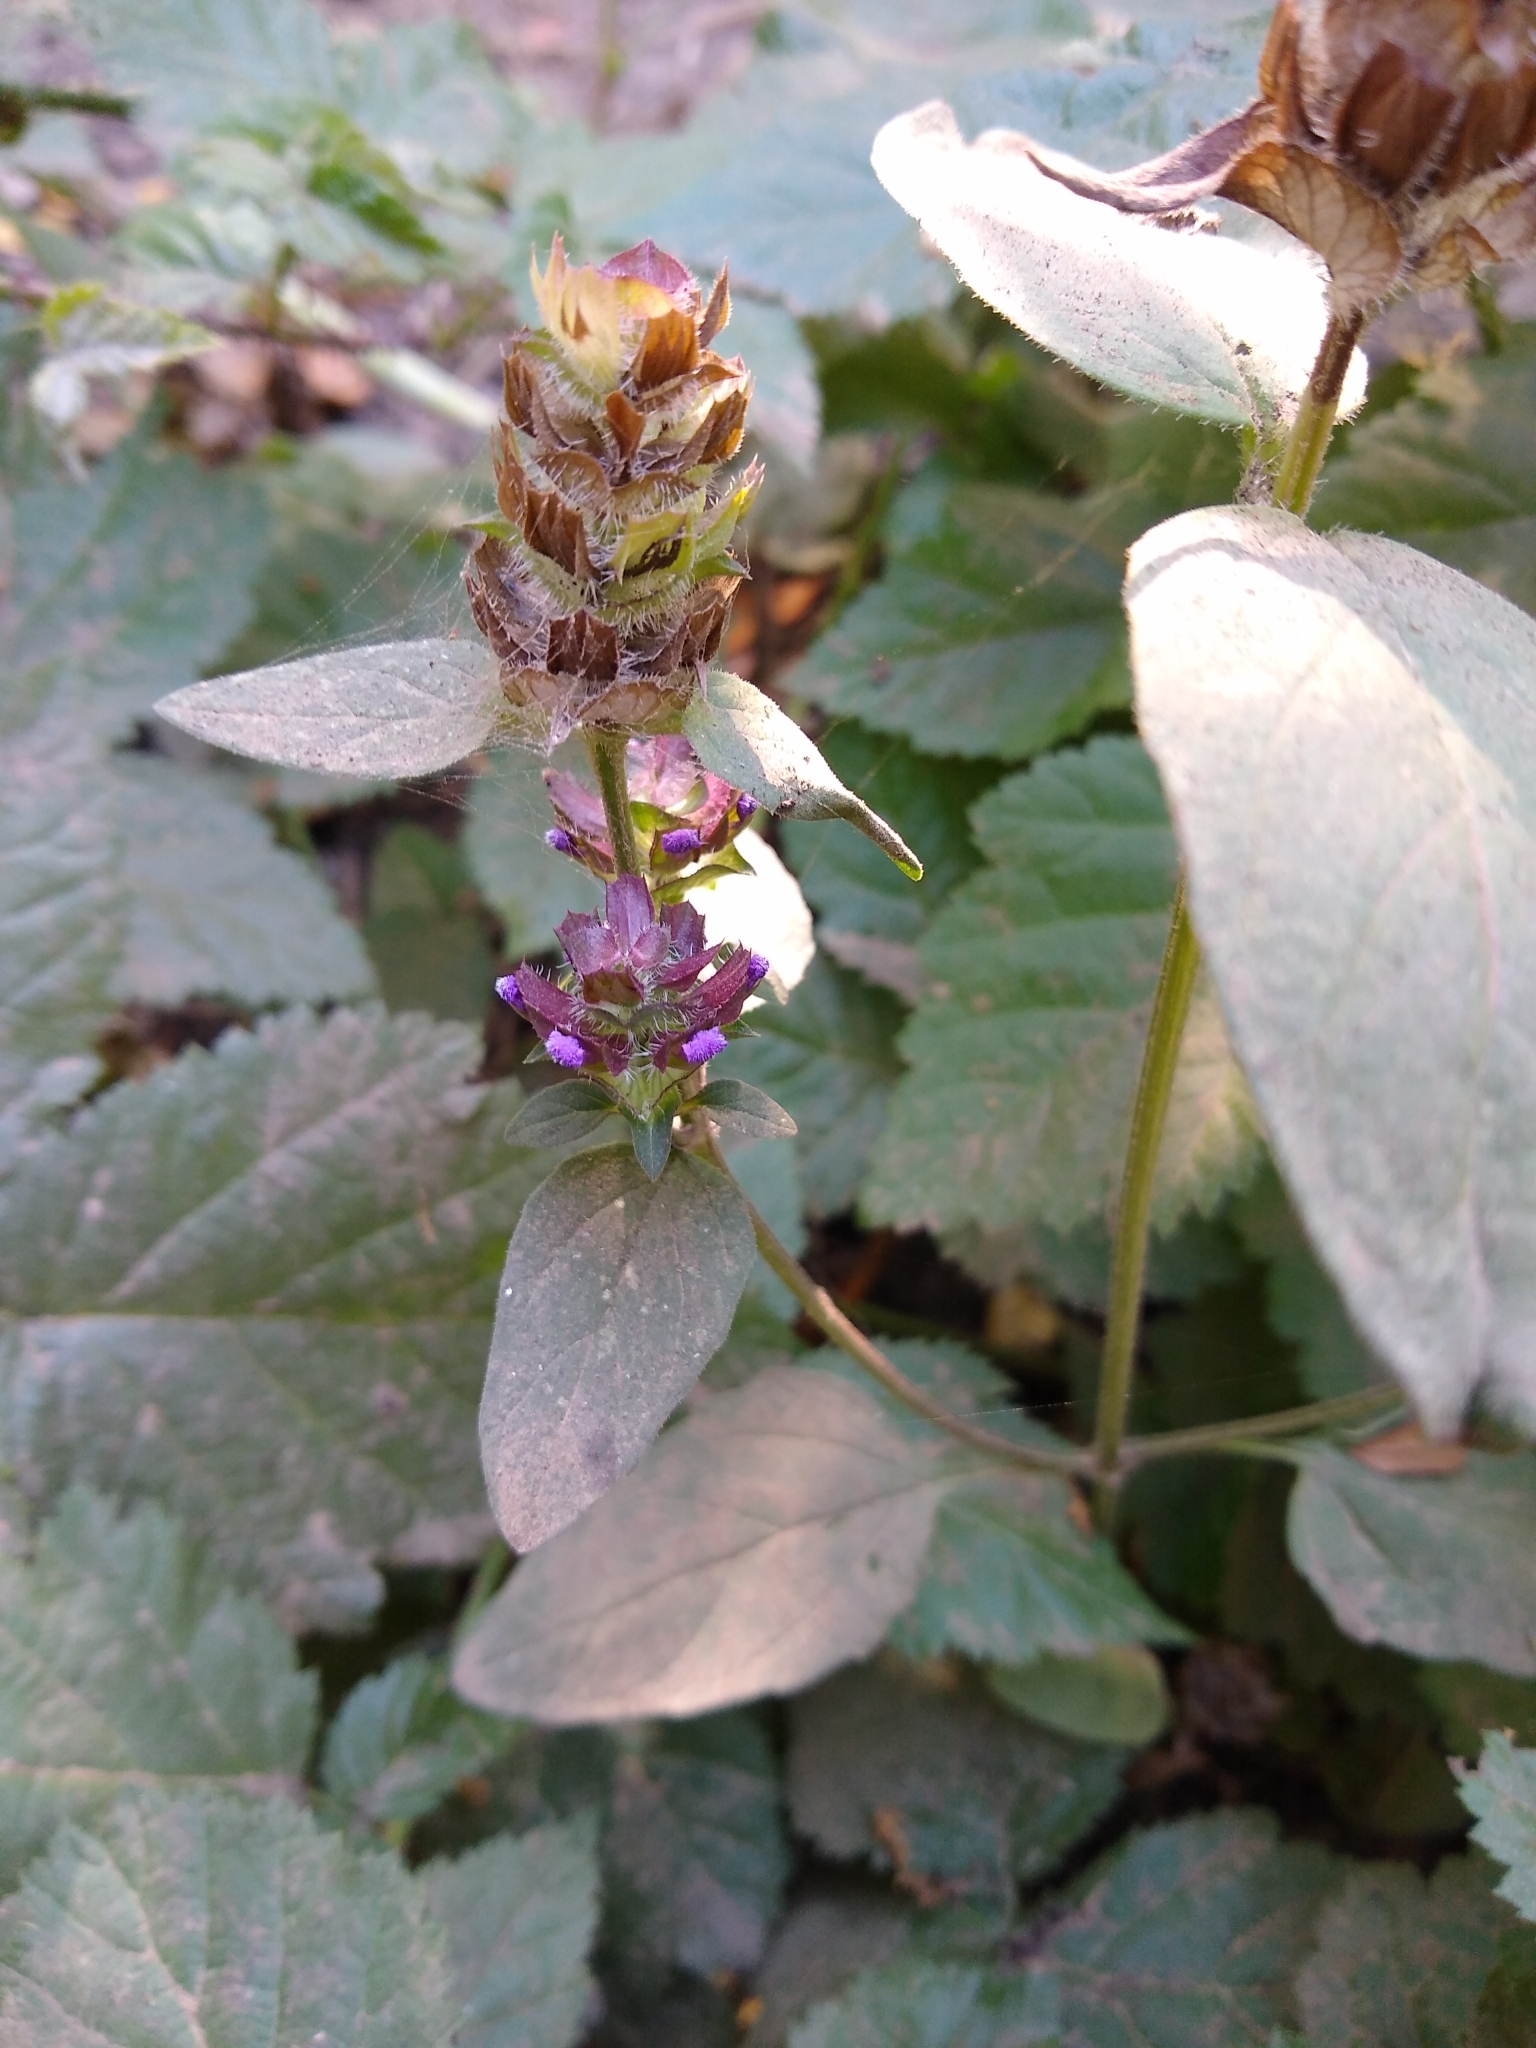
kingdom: Plantae
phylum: Tracheophyta
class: Magnoliopsida
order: Lamiales
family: Lamiaceae
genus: Prunella
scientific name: Prunella vulgaris
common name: Heal-all
